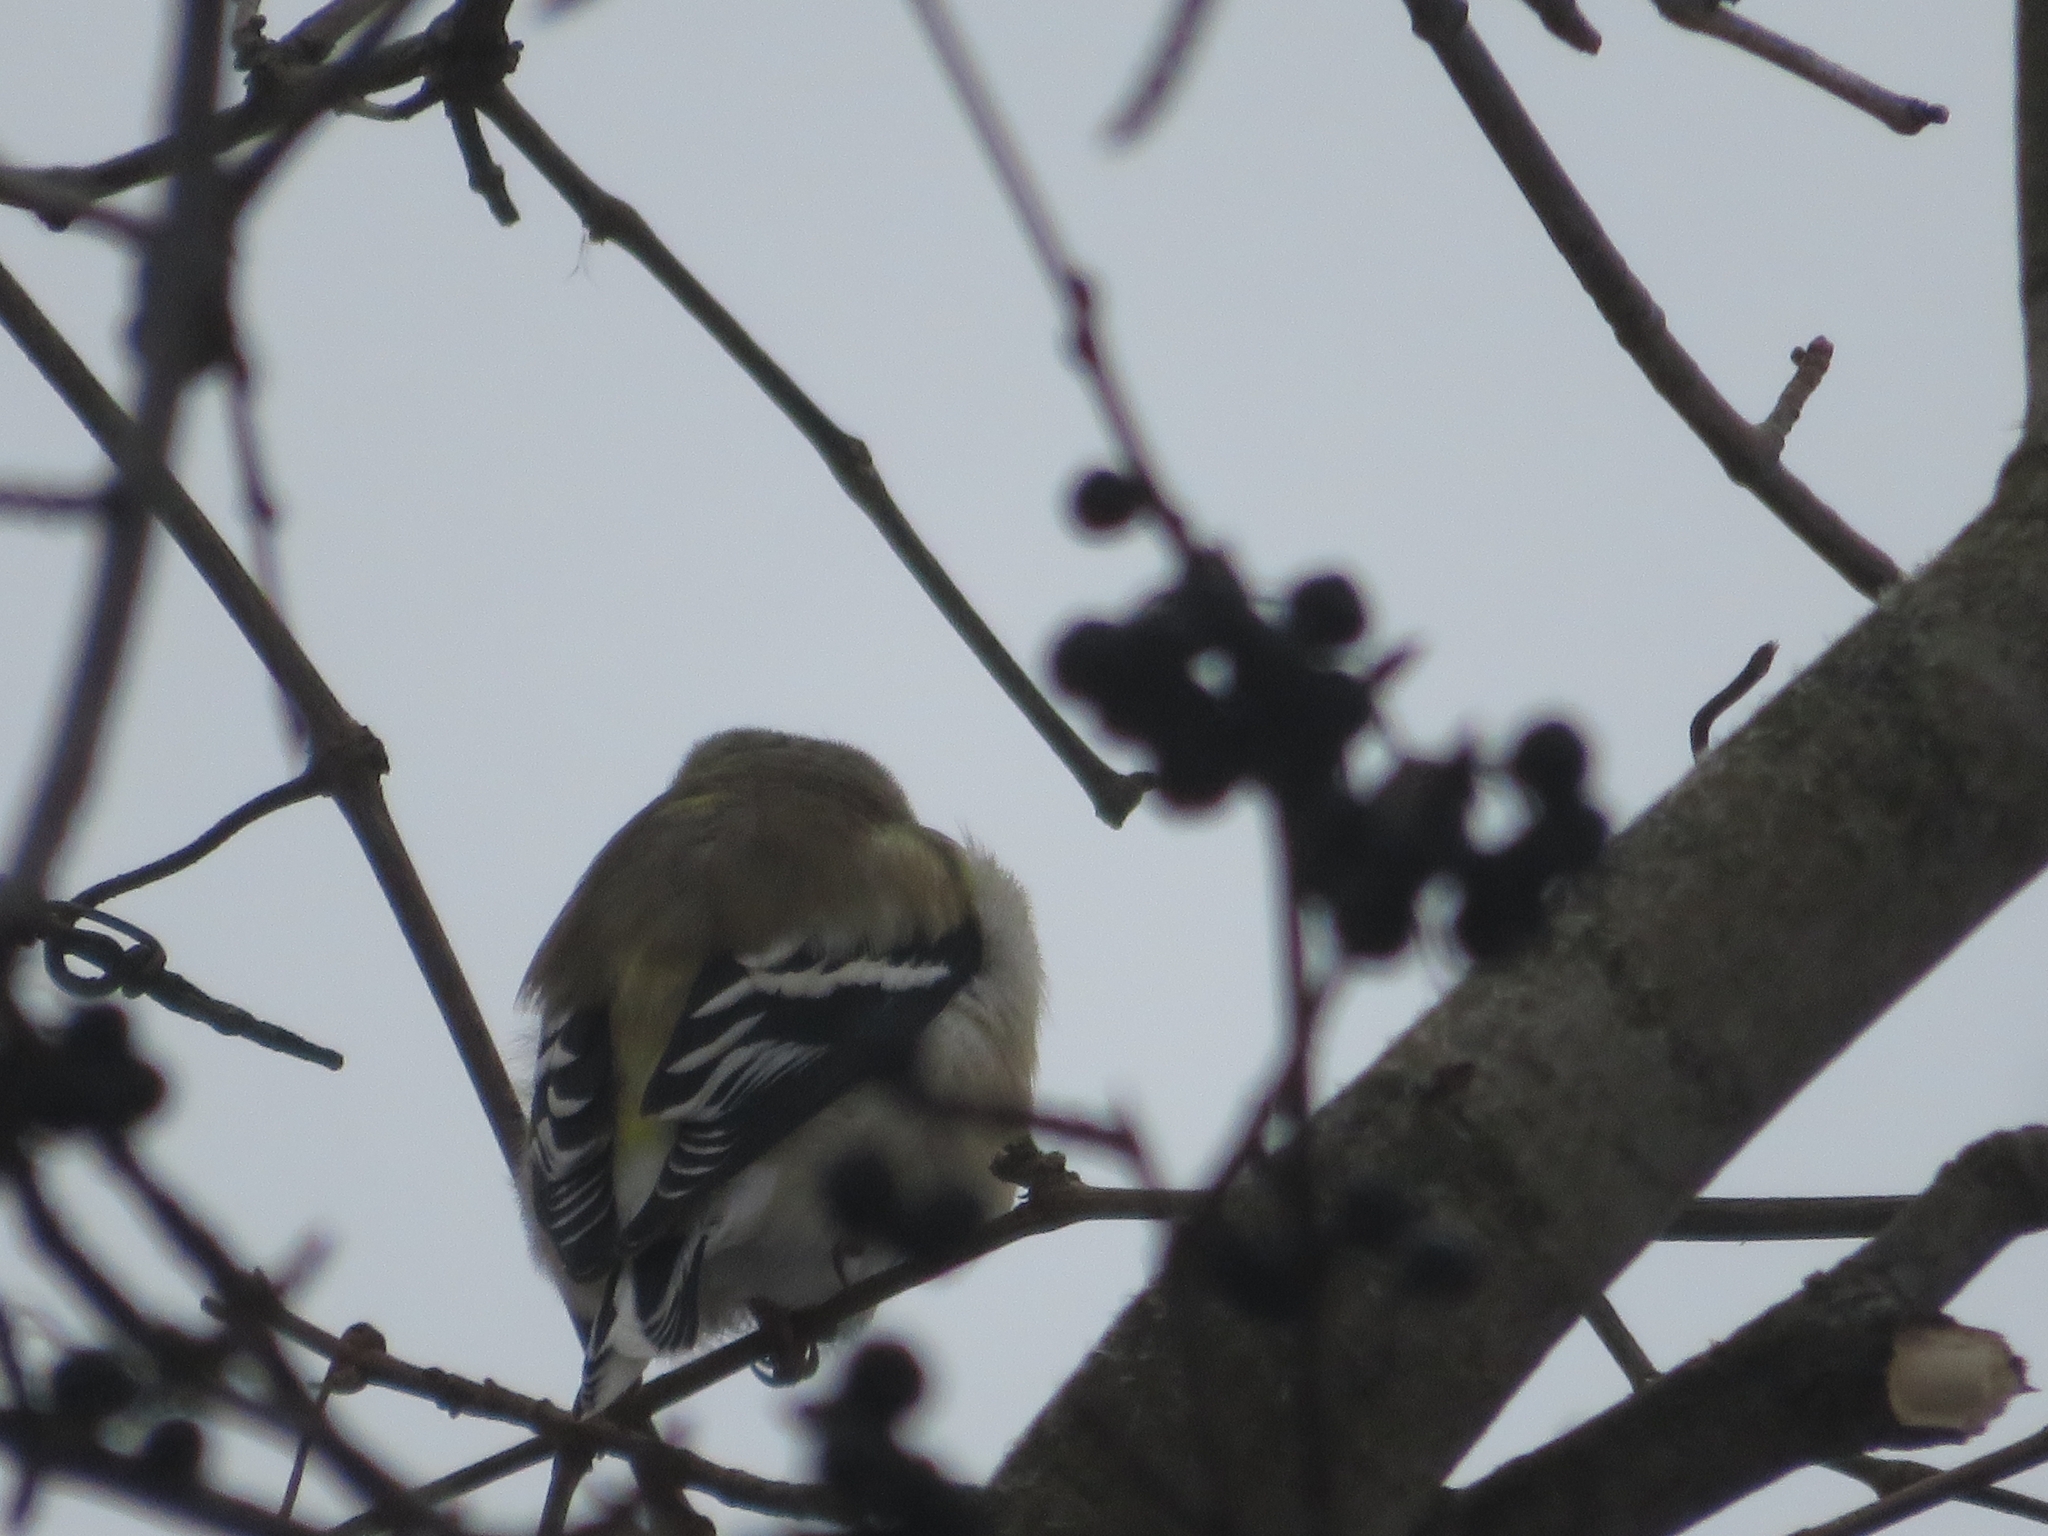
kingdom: Animalia
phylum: Chordata
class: Aves
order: Passeriformes
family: Fringillidae
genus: Spinus
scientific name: Spinus tristis
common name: American goldfinch
